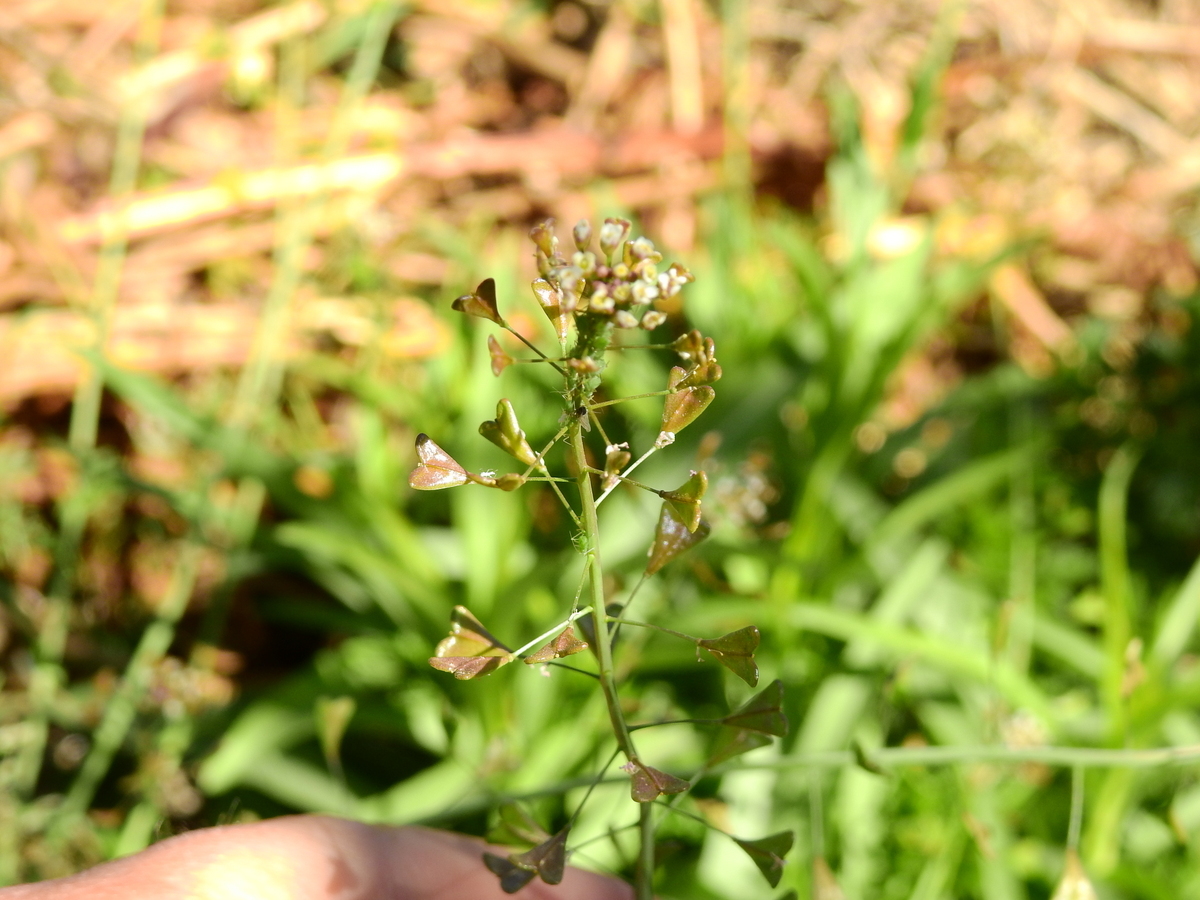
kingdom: Plantae
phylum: Tracheophyta
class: Magnoliopsida
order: Brassicales
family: Brassicaceae
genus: Capsella
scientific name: Capsella bursa-pastoris
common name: Shepherd's purse
